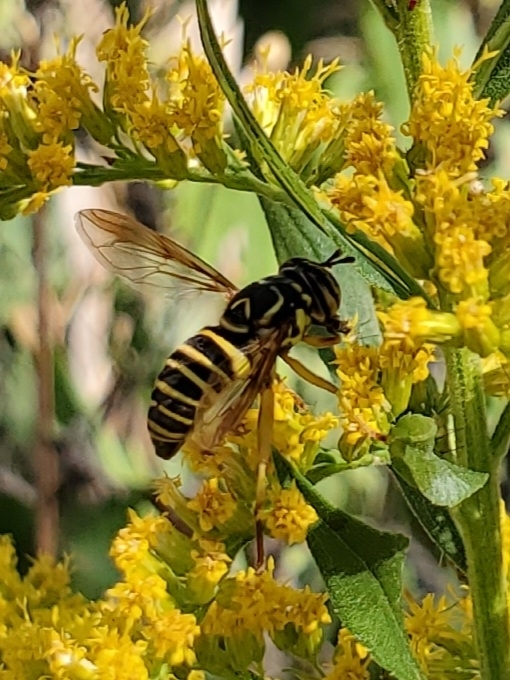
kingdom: Animalia
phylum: Arthropoda
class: Insecta
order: Diptera
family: Syrphidae
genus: Spilomyia
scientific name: Spilomyia longicornis
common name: Eastern hornet fly
